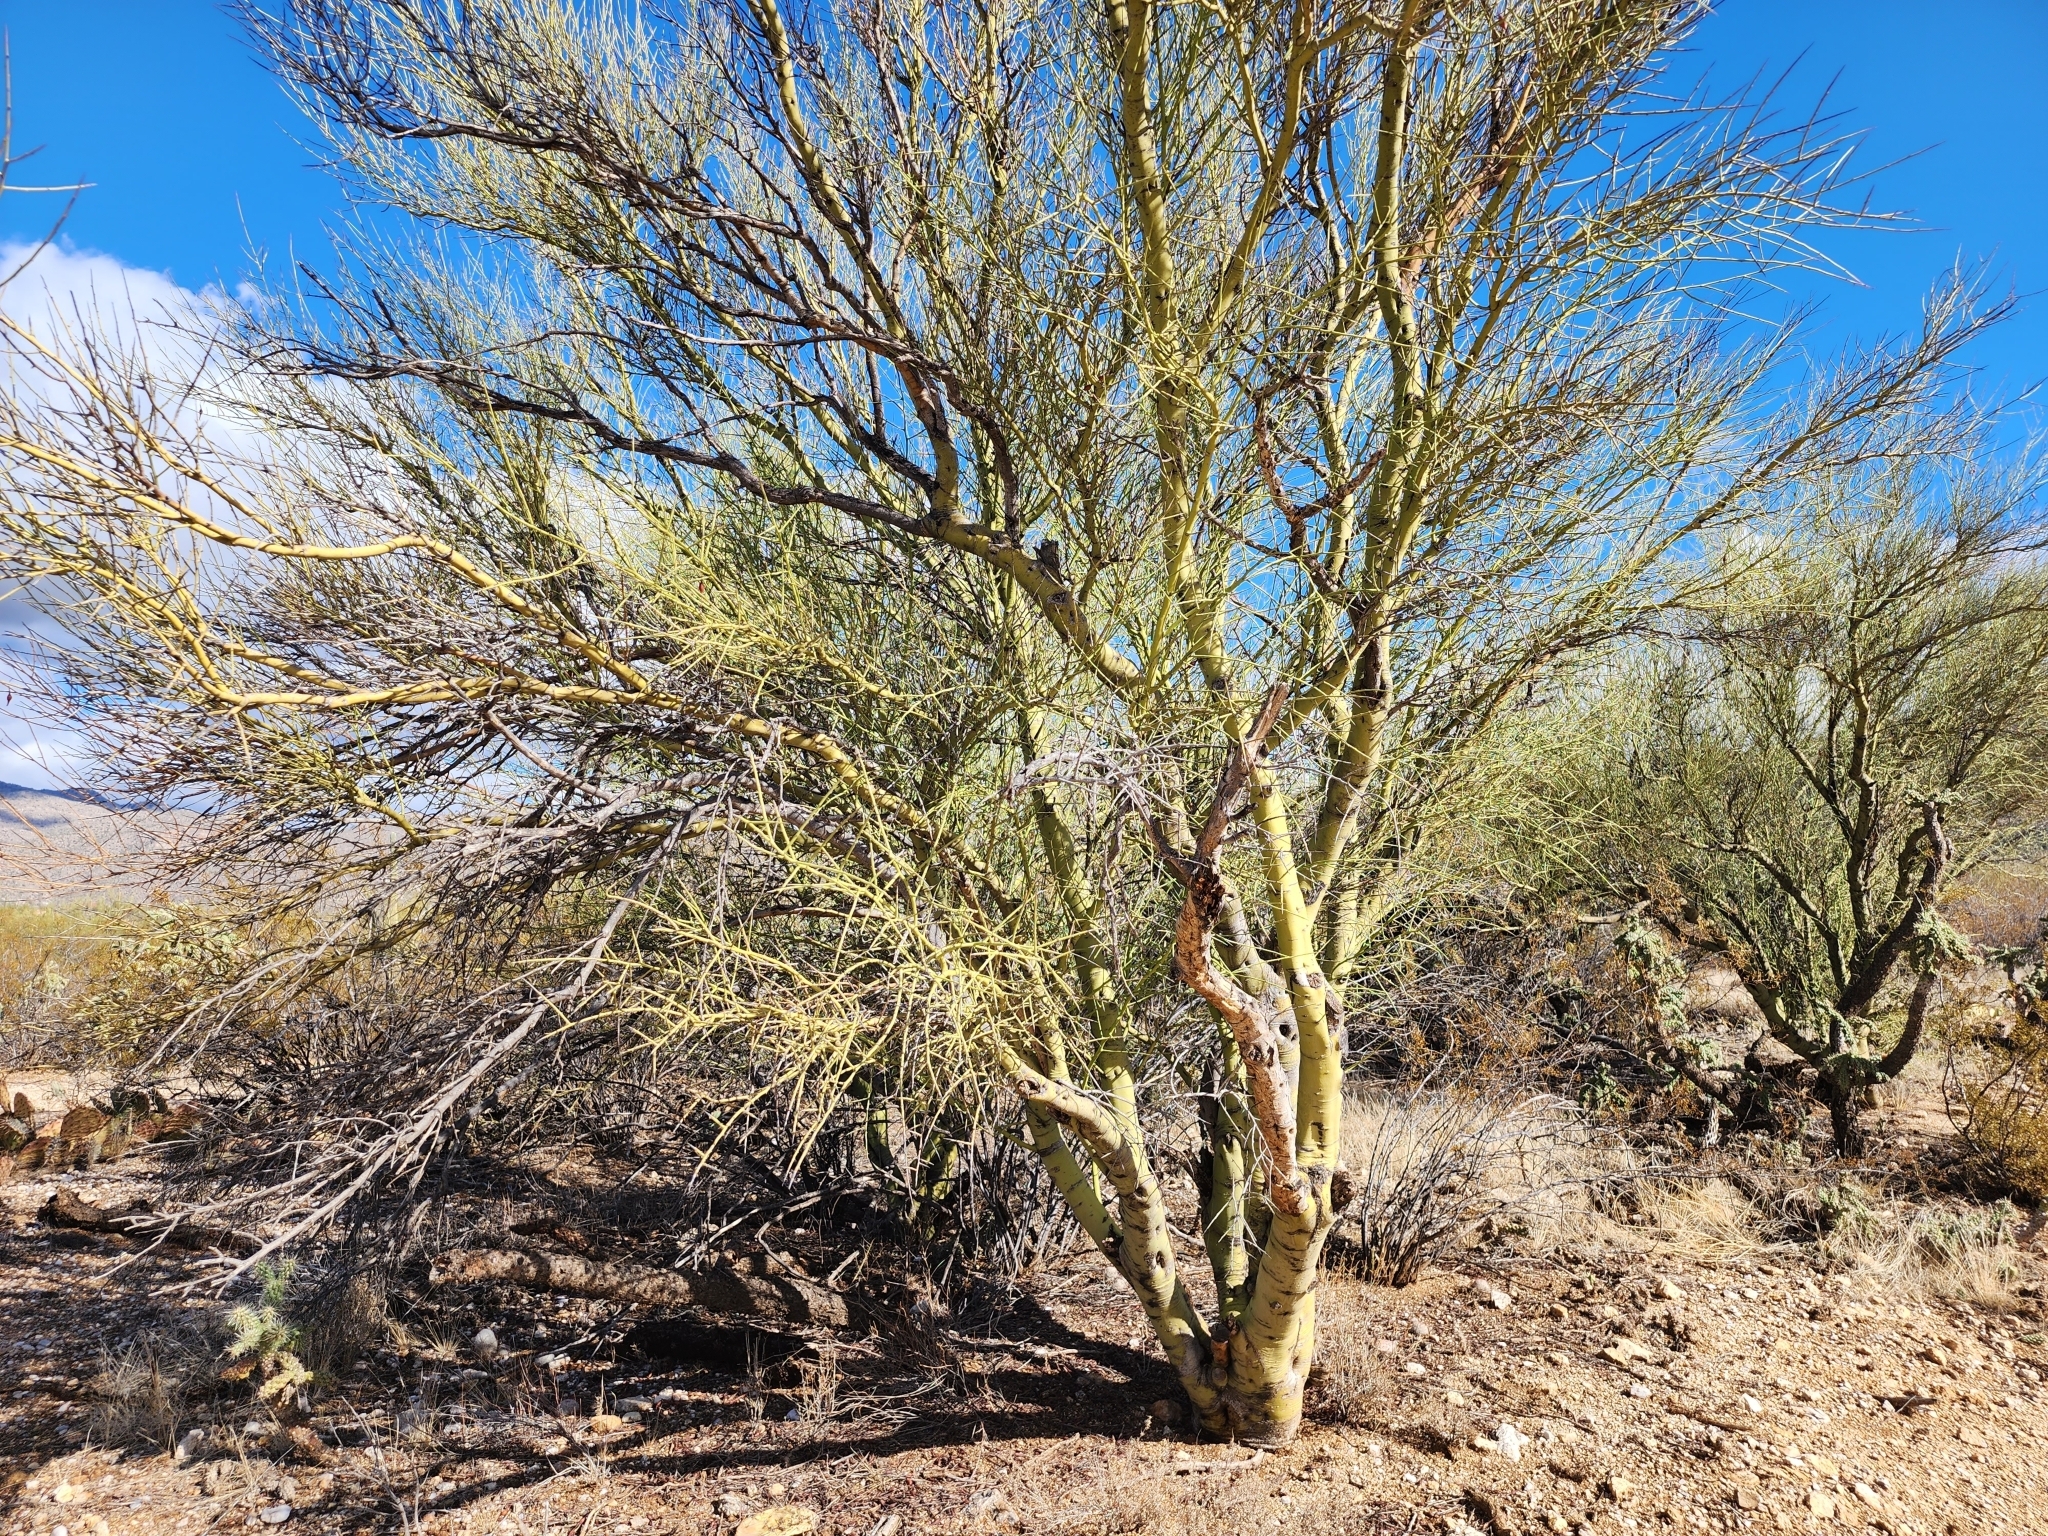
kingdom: Plantae
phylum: Tracheophyta
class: Magnoliopsida
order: Fabales
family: Fabaceae
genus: Parkinsonia
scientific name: Parkinsonia microphylla
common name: Yellow paloverde
